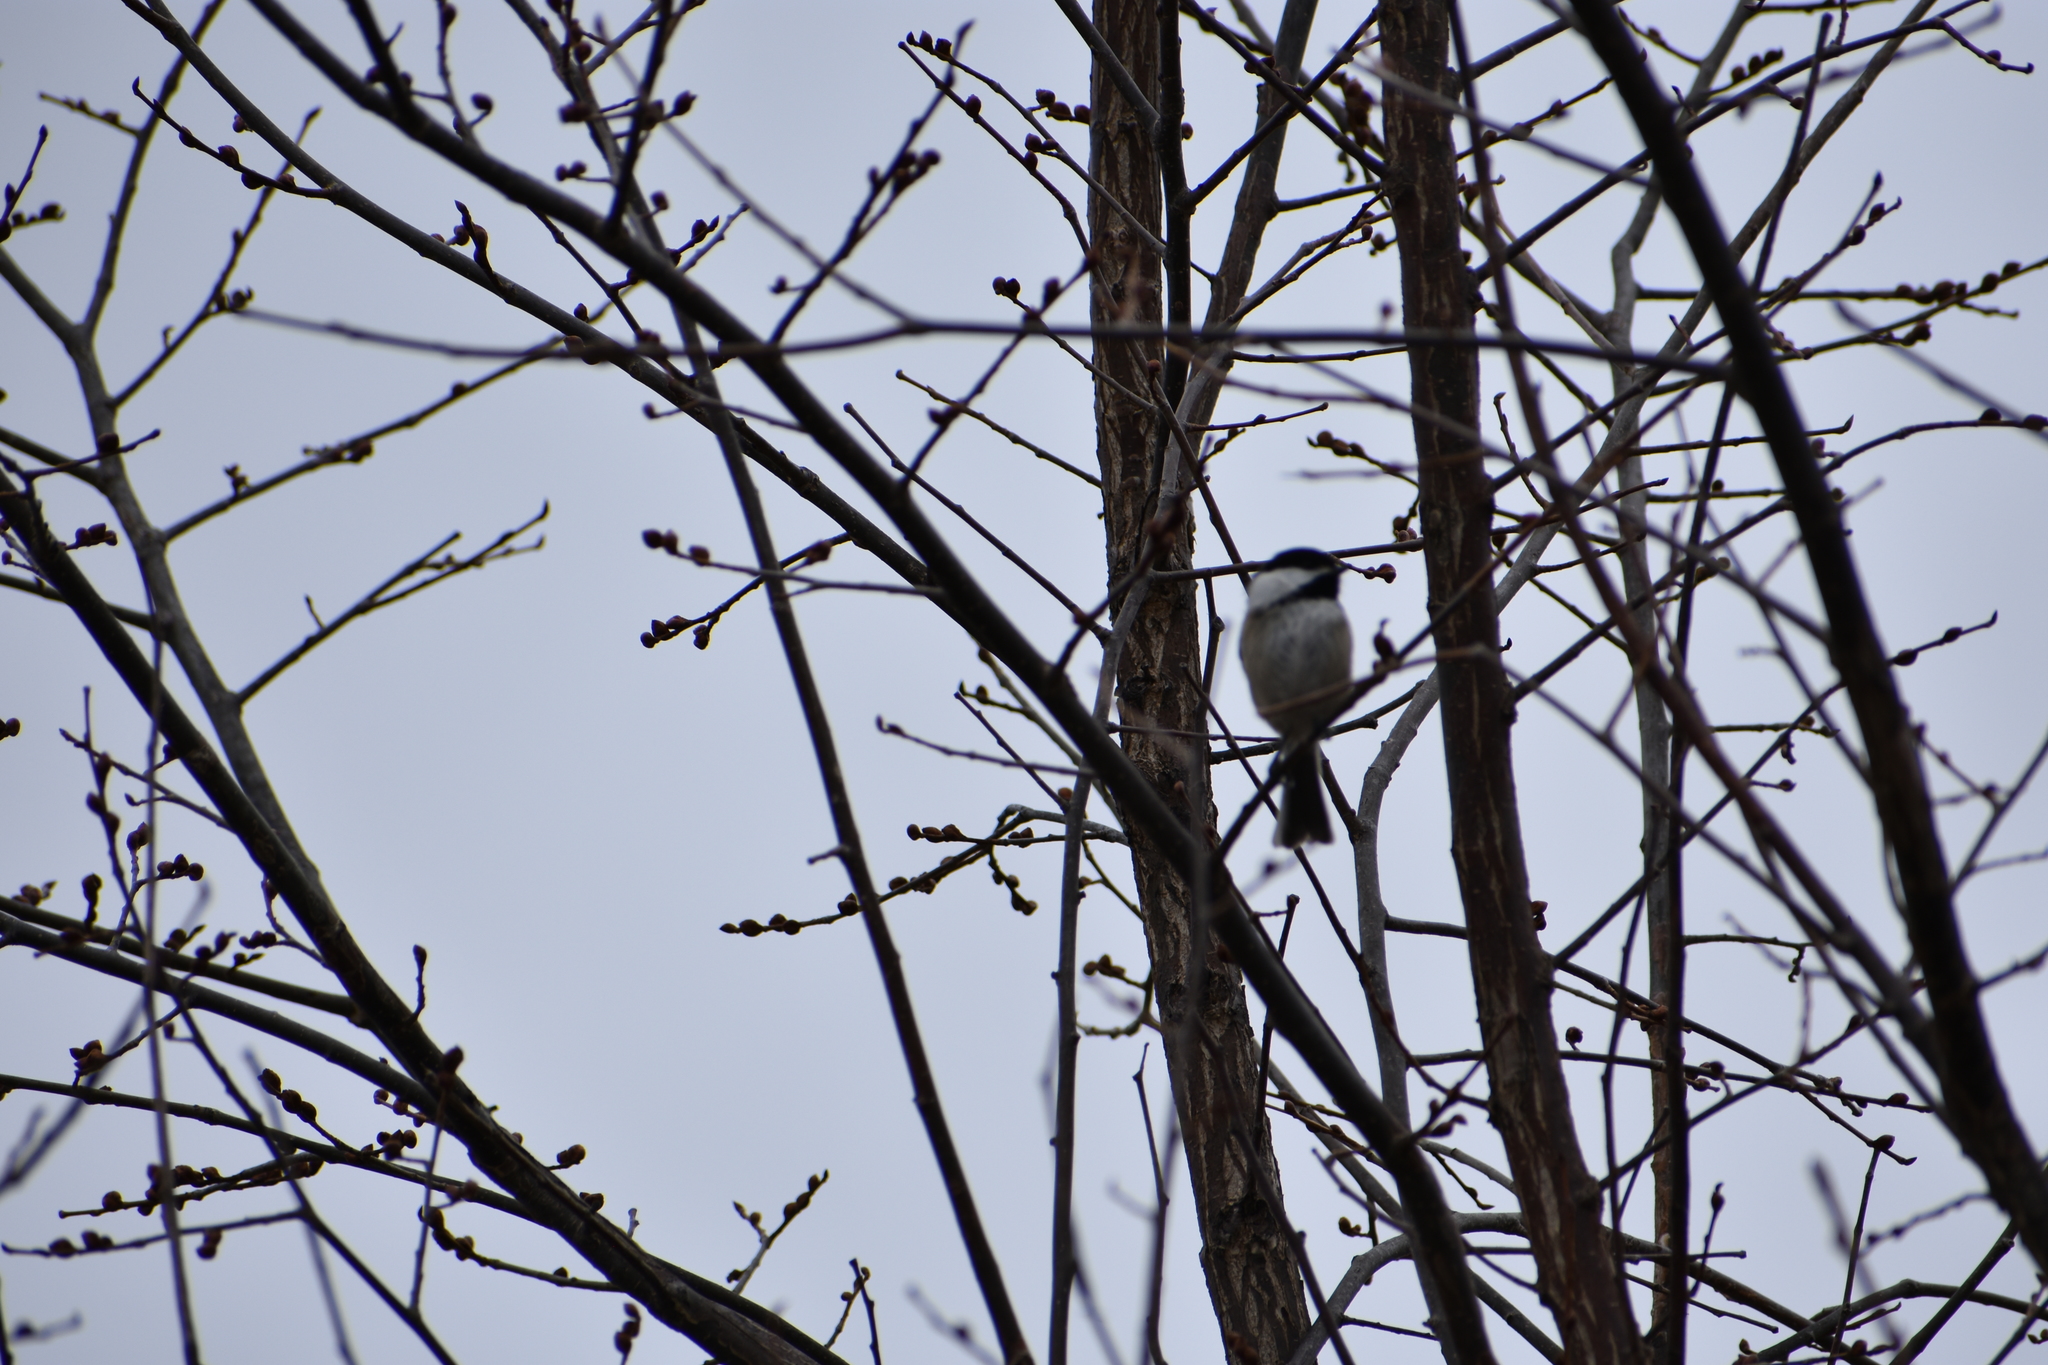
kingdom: Animalia
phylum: Chordata
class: Aves
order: Passeriformes
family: Paridae
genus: Poecile
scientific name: Poecile atricapillus
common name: Black-capped chickadee
